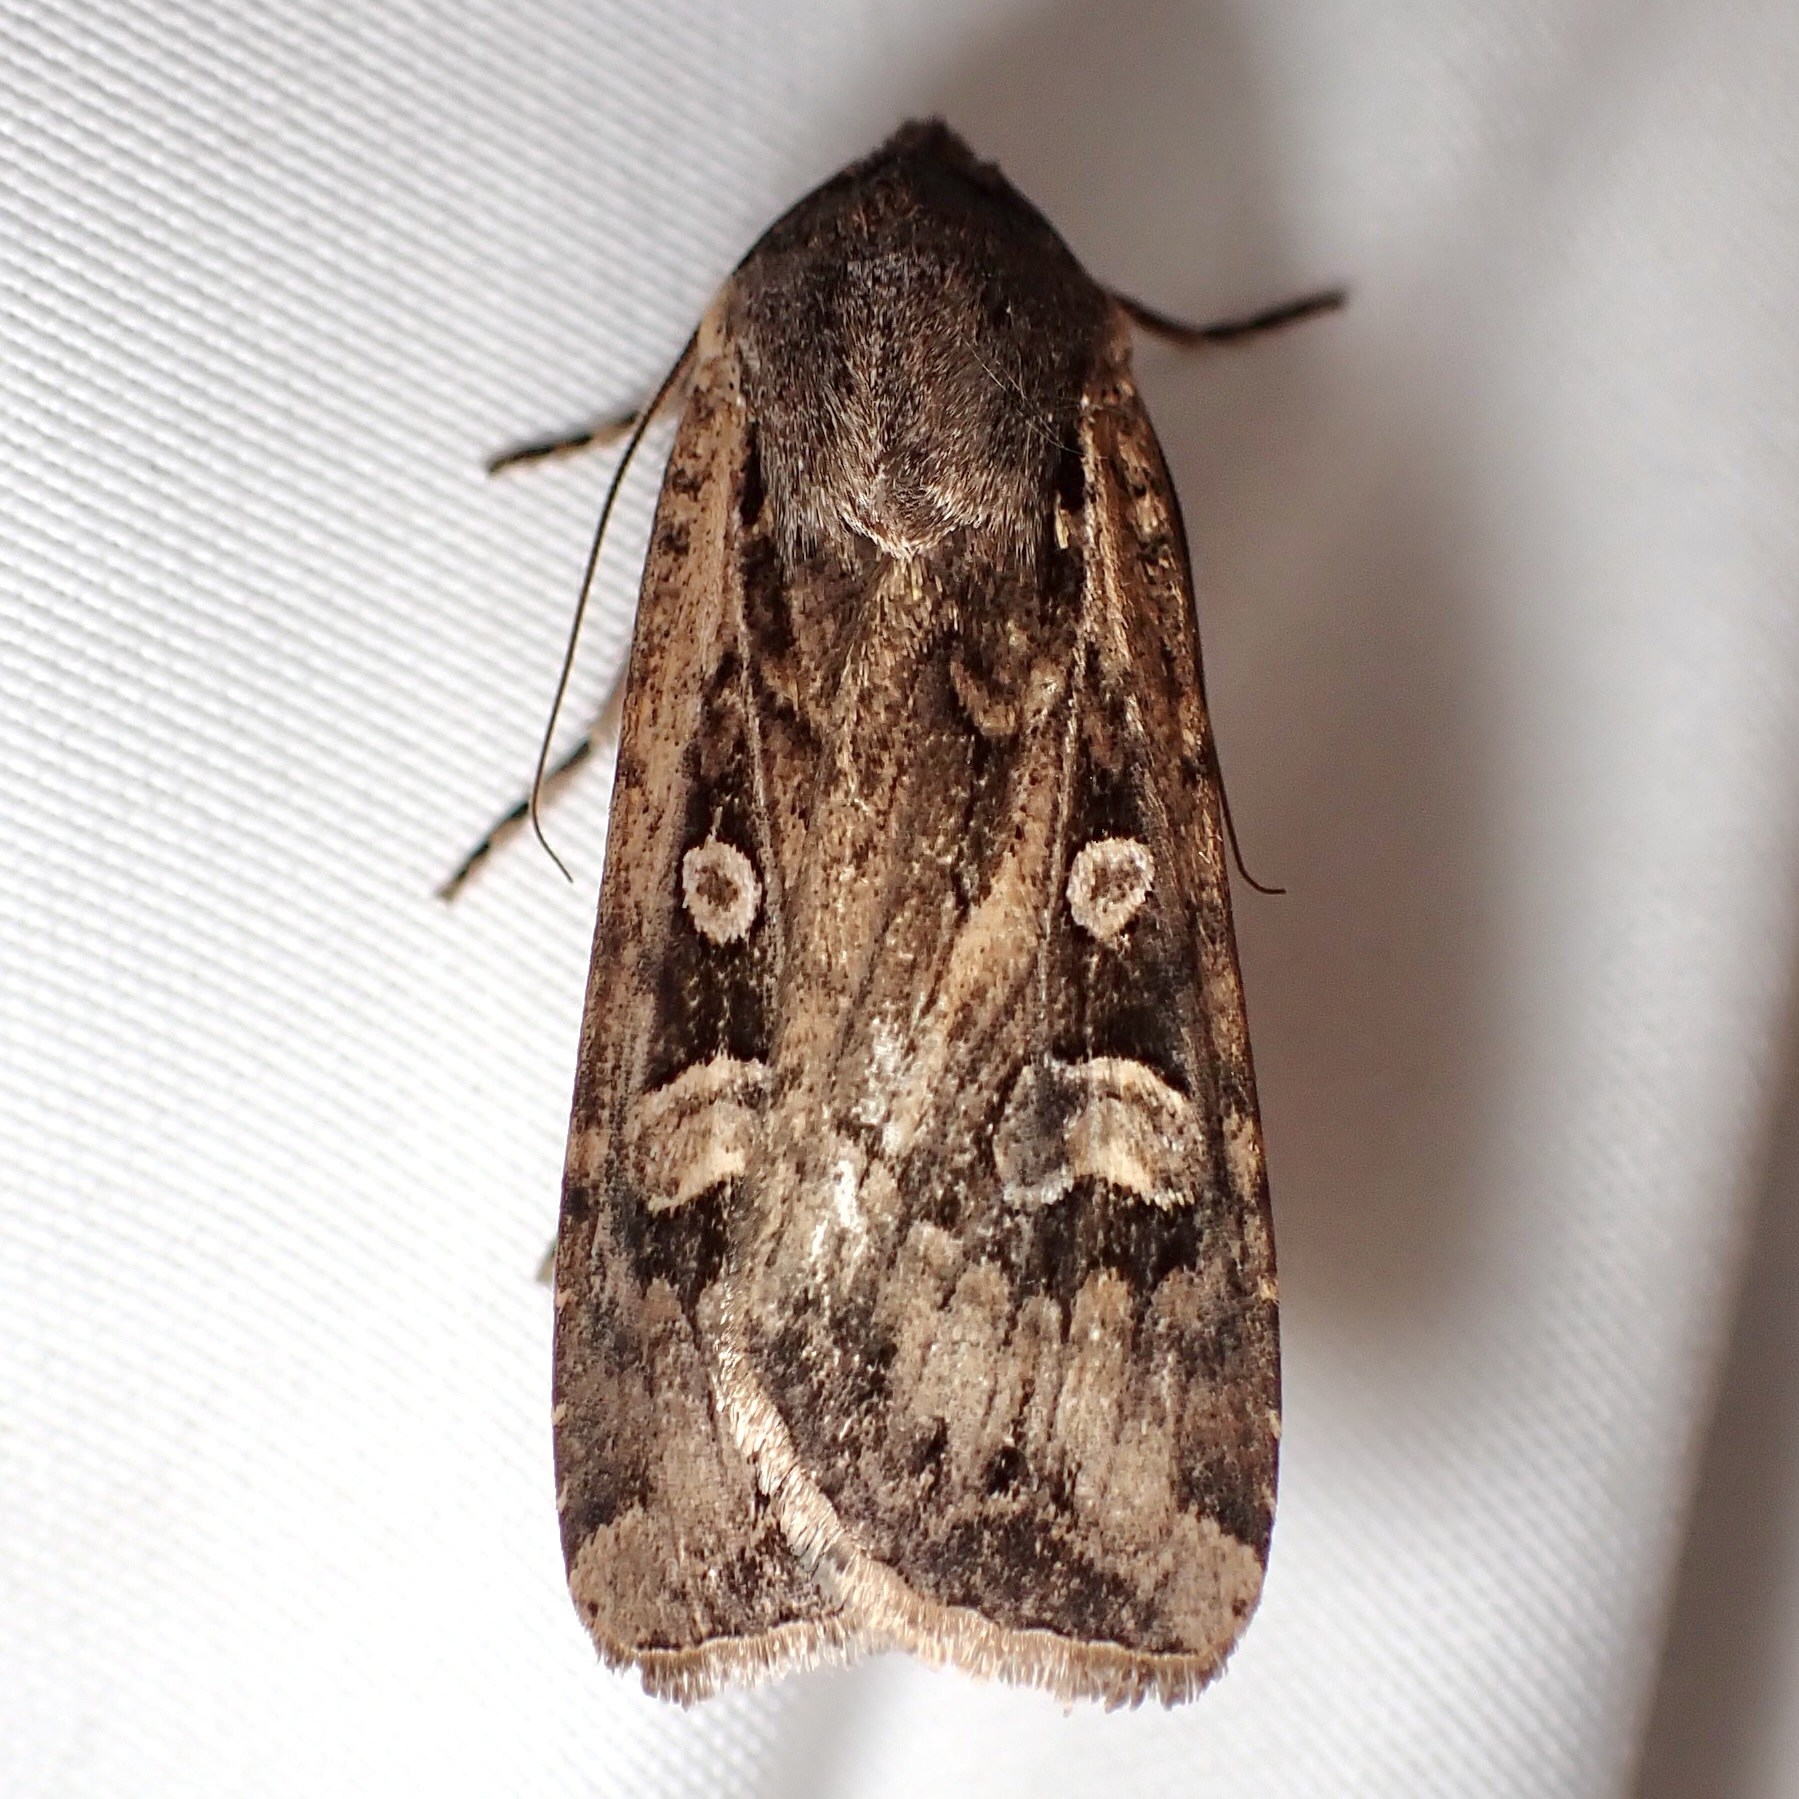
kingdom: Animalia
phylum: Arthropoda
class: Insecta
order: Lepidoptera
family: Noctuidae
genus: Euxoa
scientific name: Euxoa auxiliaris
